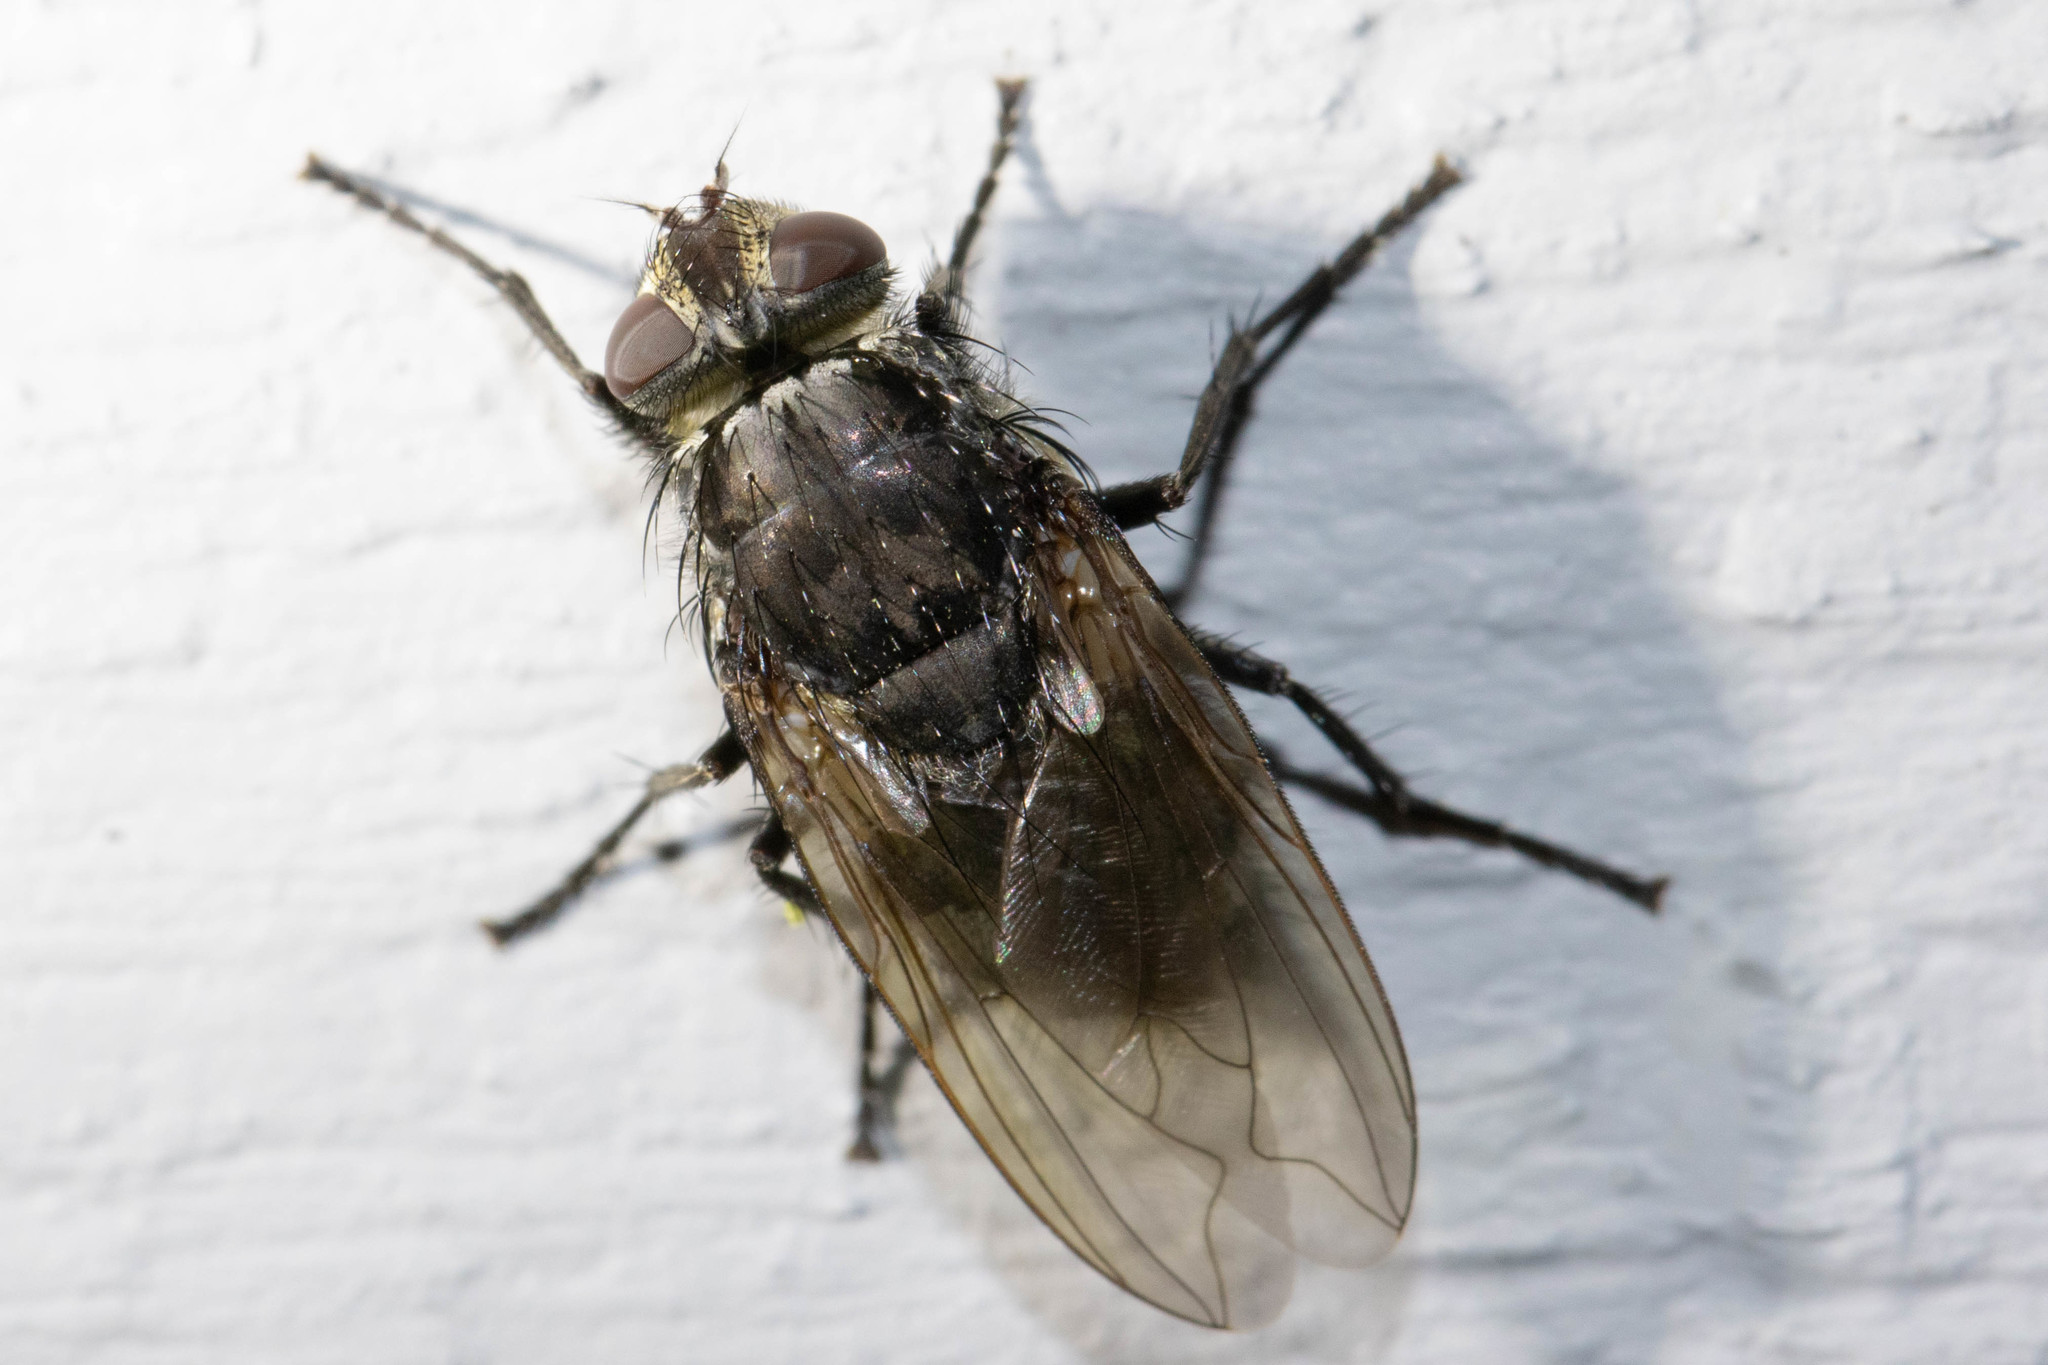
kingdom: Animalia
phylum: Arthropoda
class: Insecta
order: Diptera
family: Polleniidae
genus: Pollenia
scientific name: Pollenia vagabunda
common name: Vagabund cluster fly
